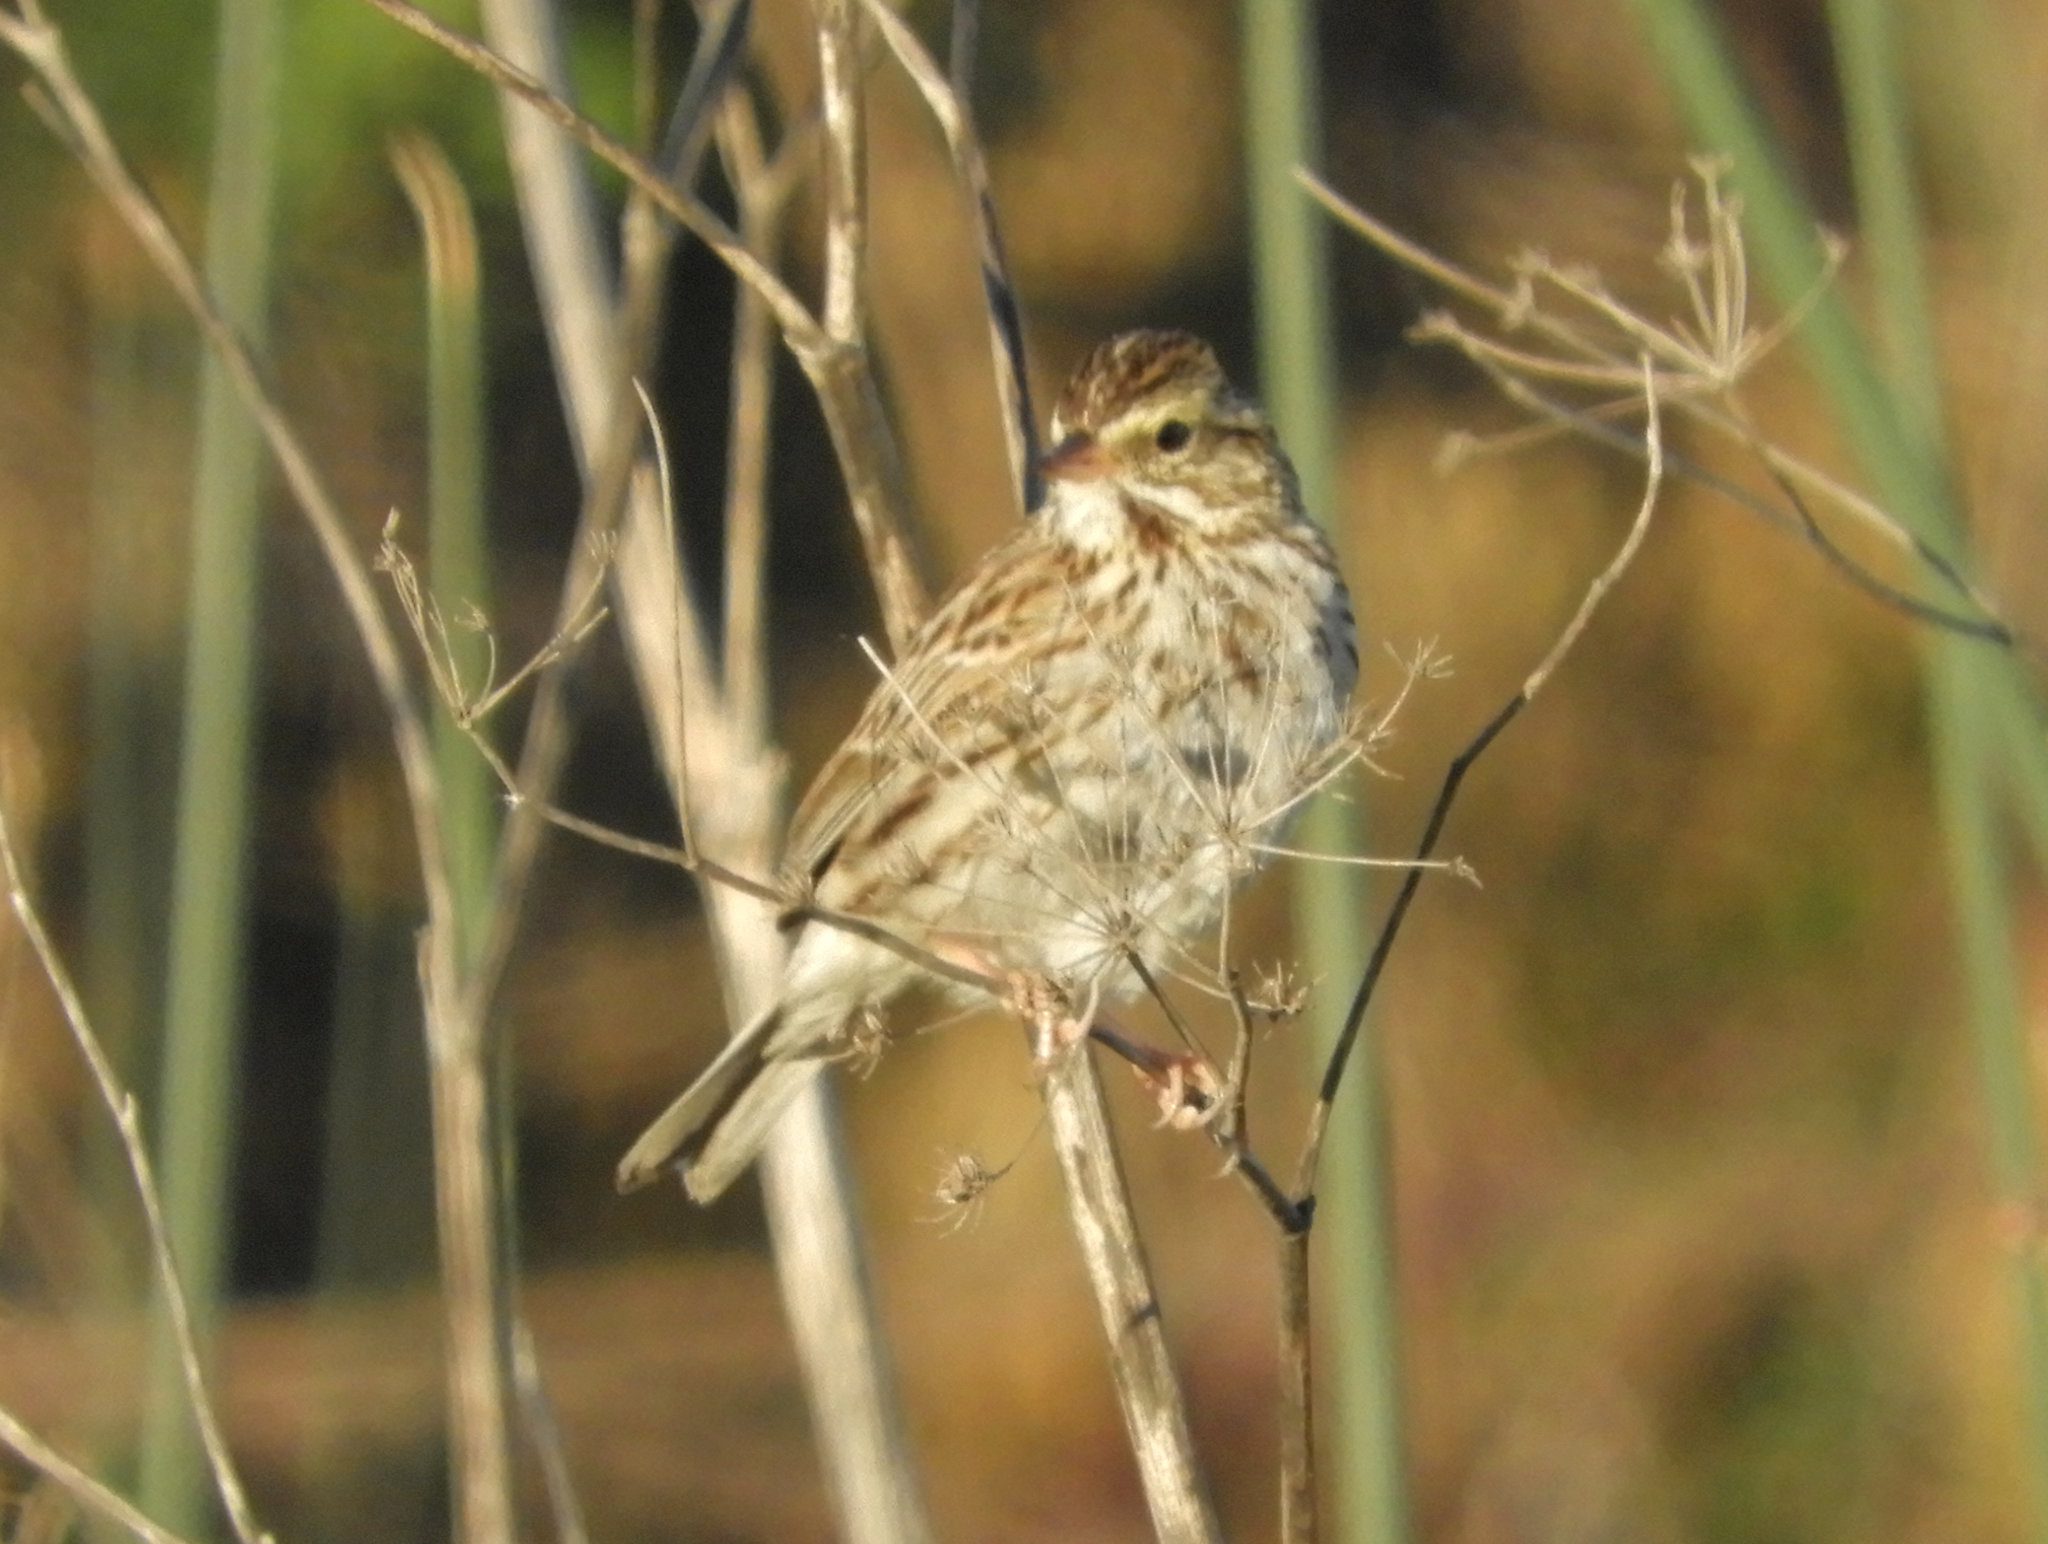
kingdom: Animalia
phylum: Chordata
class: Aves
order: Passeriformes
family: Passerellidae
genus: Passerculus
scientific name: Passerculus sandwichensis
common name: Savannah sparrow
